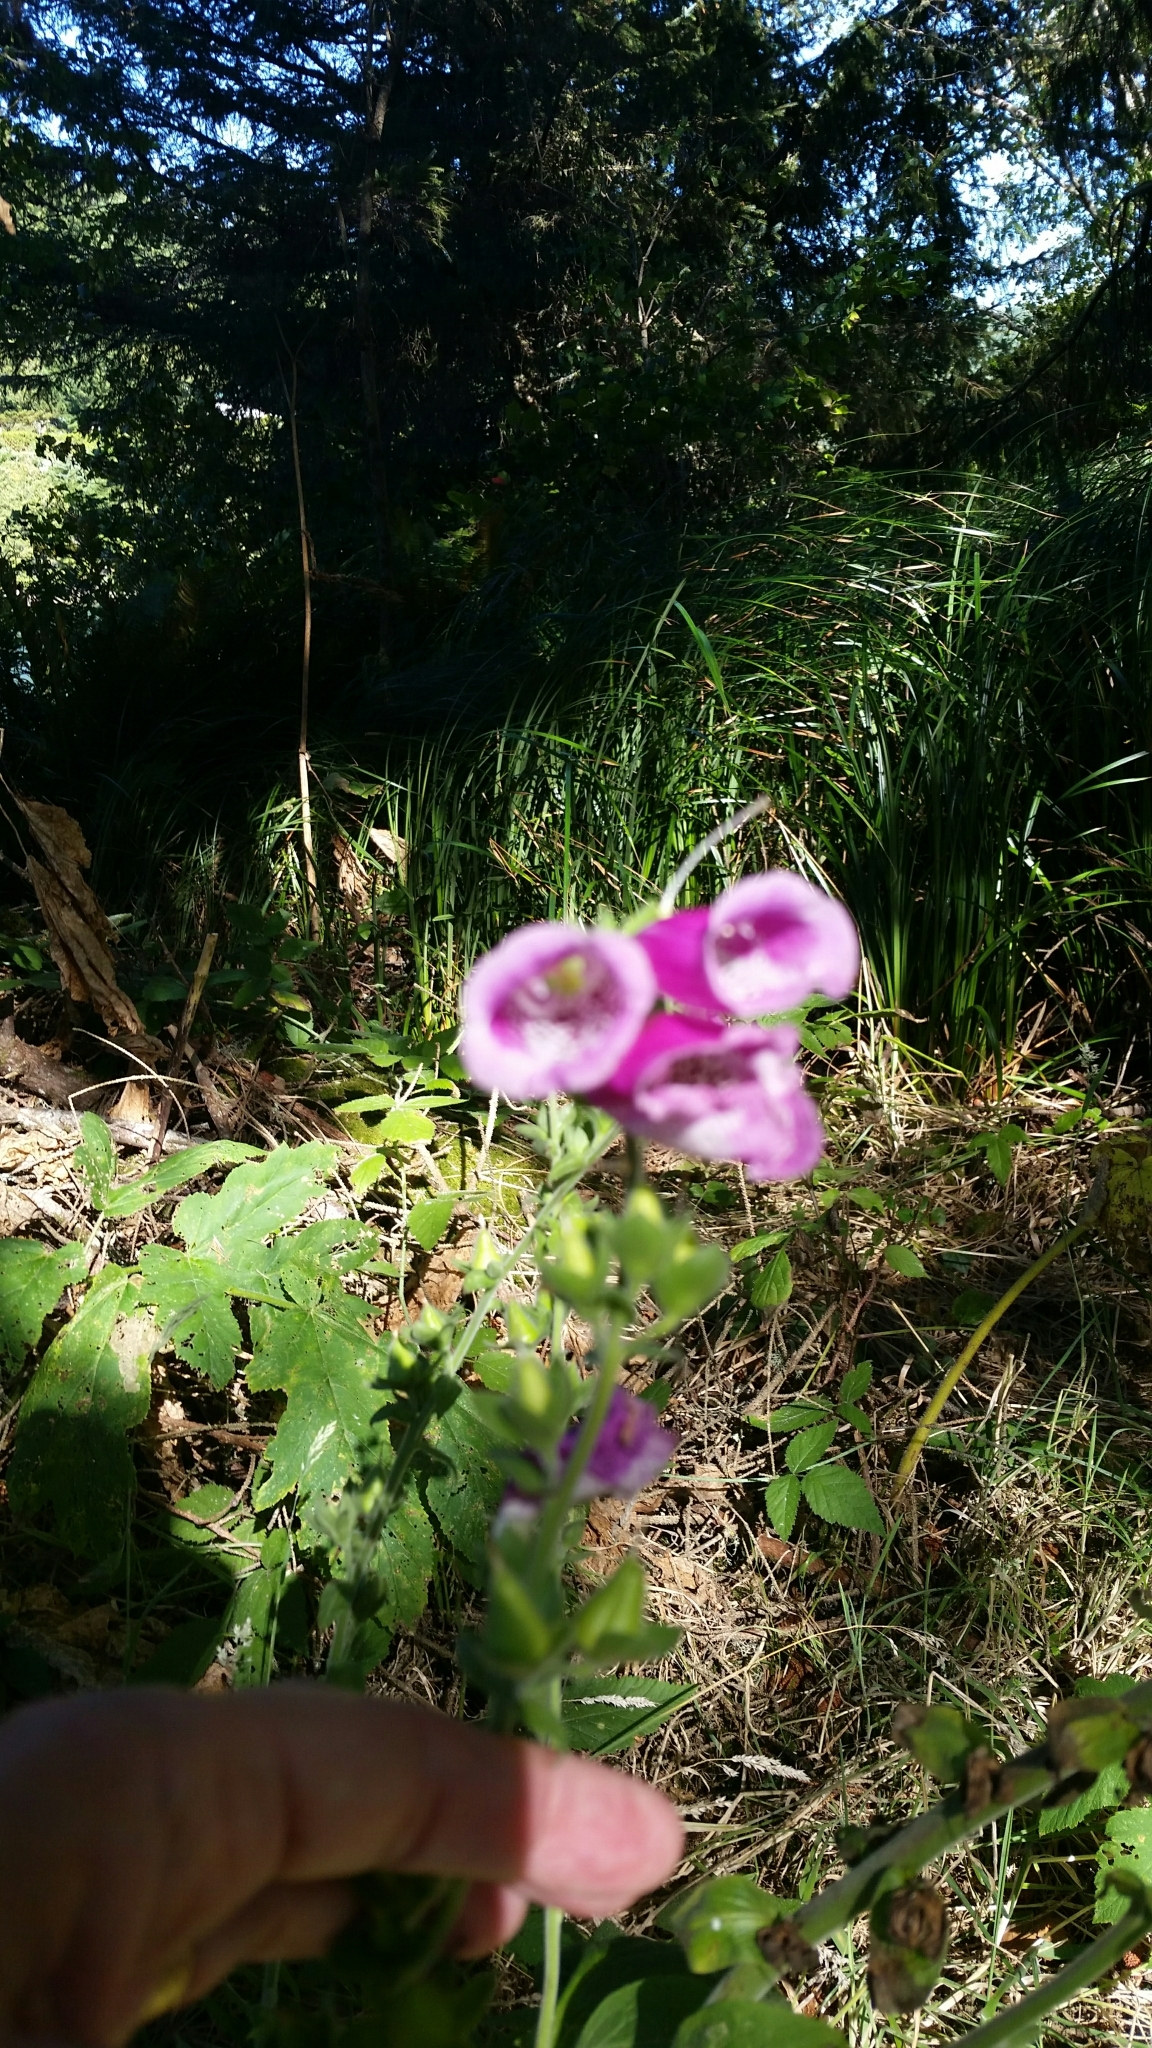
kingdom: Plantae
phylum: Tracheophyta
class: Magnoliopsida
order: Lamiales
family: Plantaginaceae
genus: Digitalis
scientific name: Digitalis purpurea
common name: Foxglove
